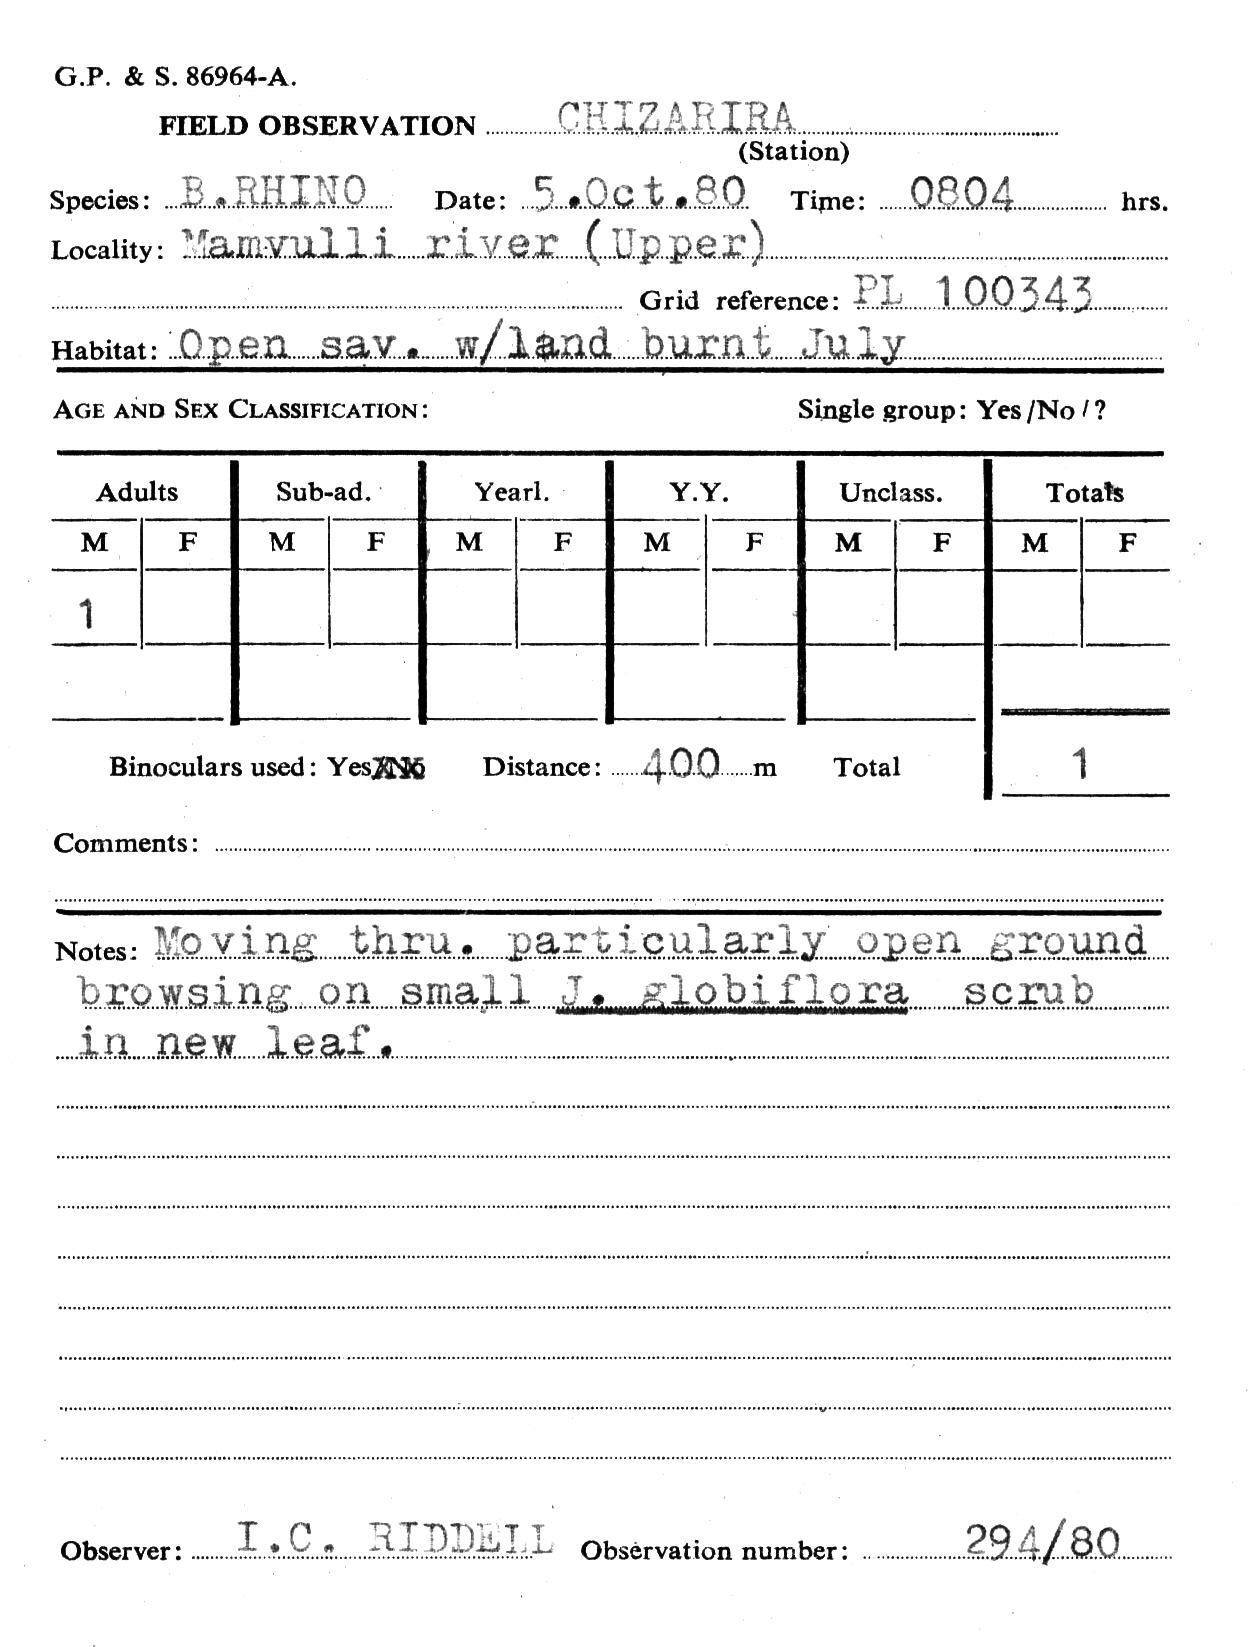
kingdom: Animalia
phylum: Chordata
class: Mammalia
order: Perissodactyla
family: Rhinocerotidae
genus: Diceros
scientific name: Diceros bicornis
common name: Black rhinoceros
